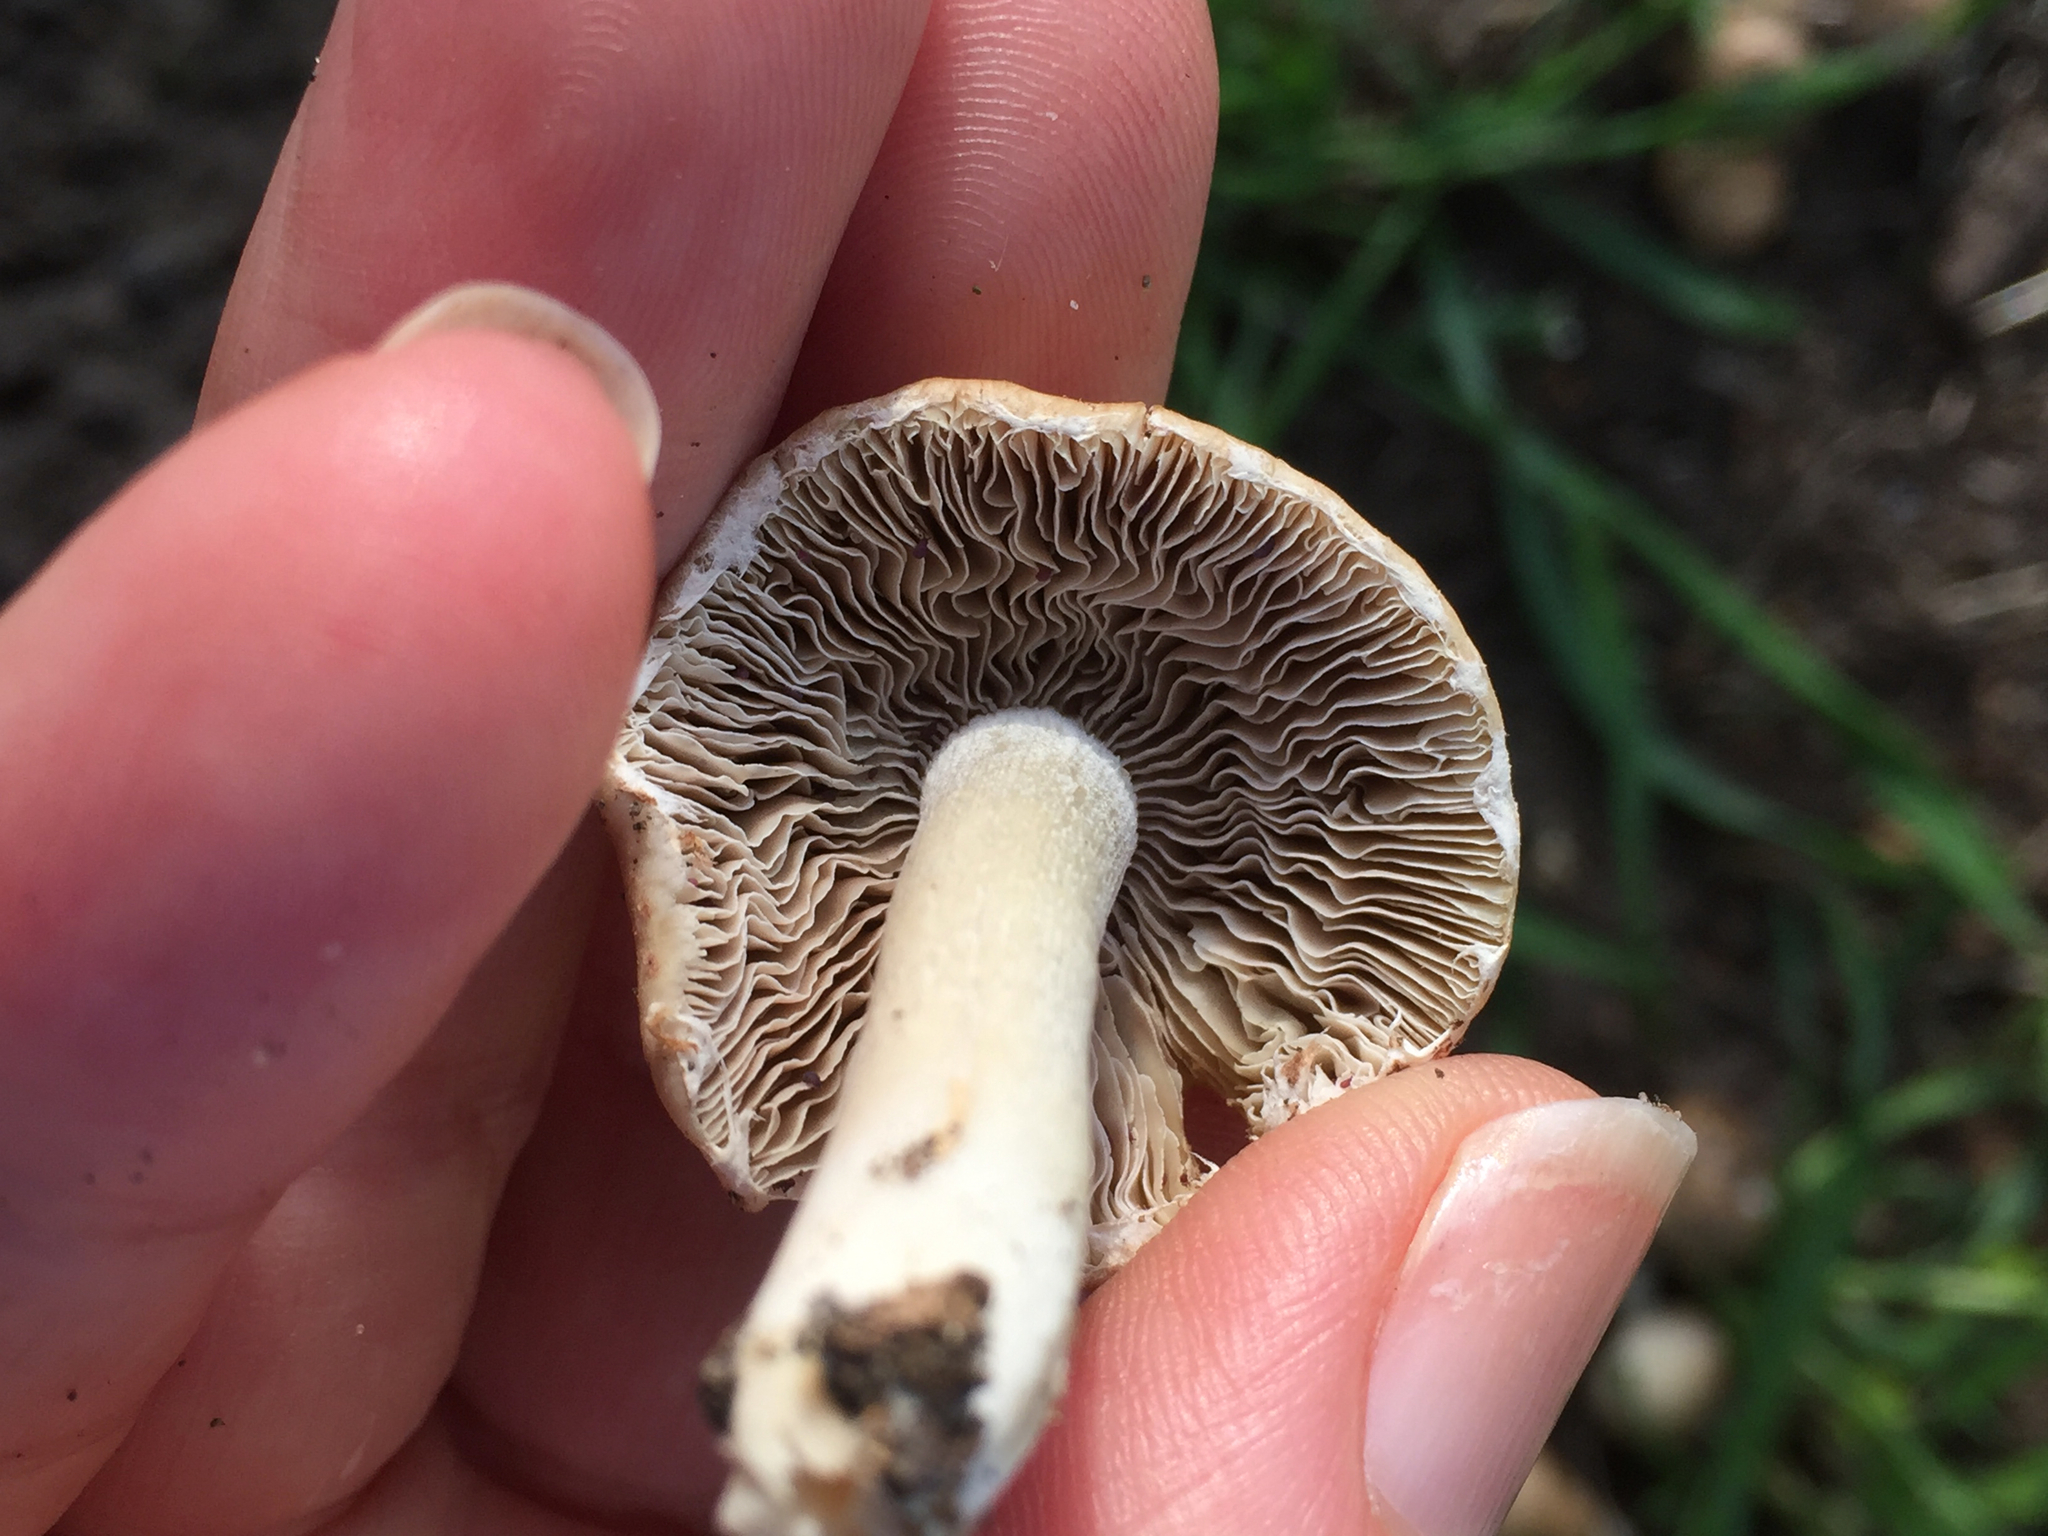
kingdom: Fungi
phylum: Basidiomycota
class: Agaricomycetes
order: Agaricales
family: Psathyrellaceae
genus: Candolleomyces
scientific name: Candolleomyces candolleanus
